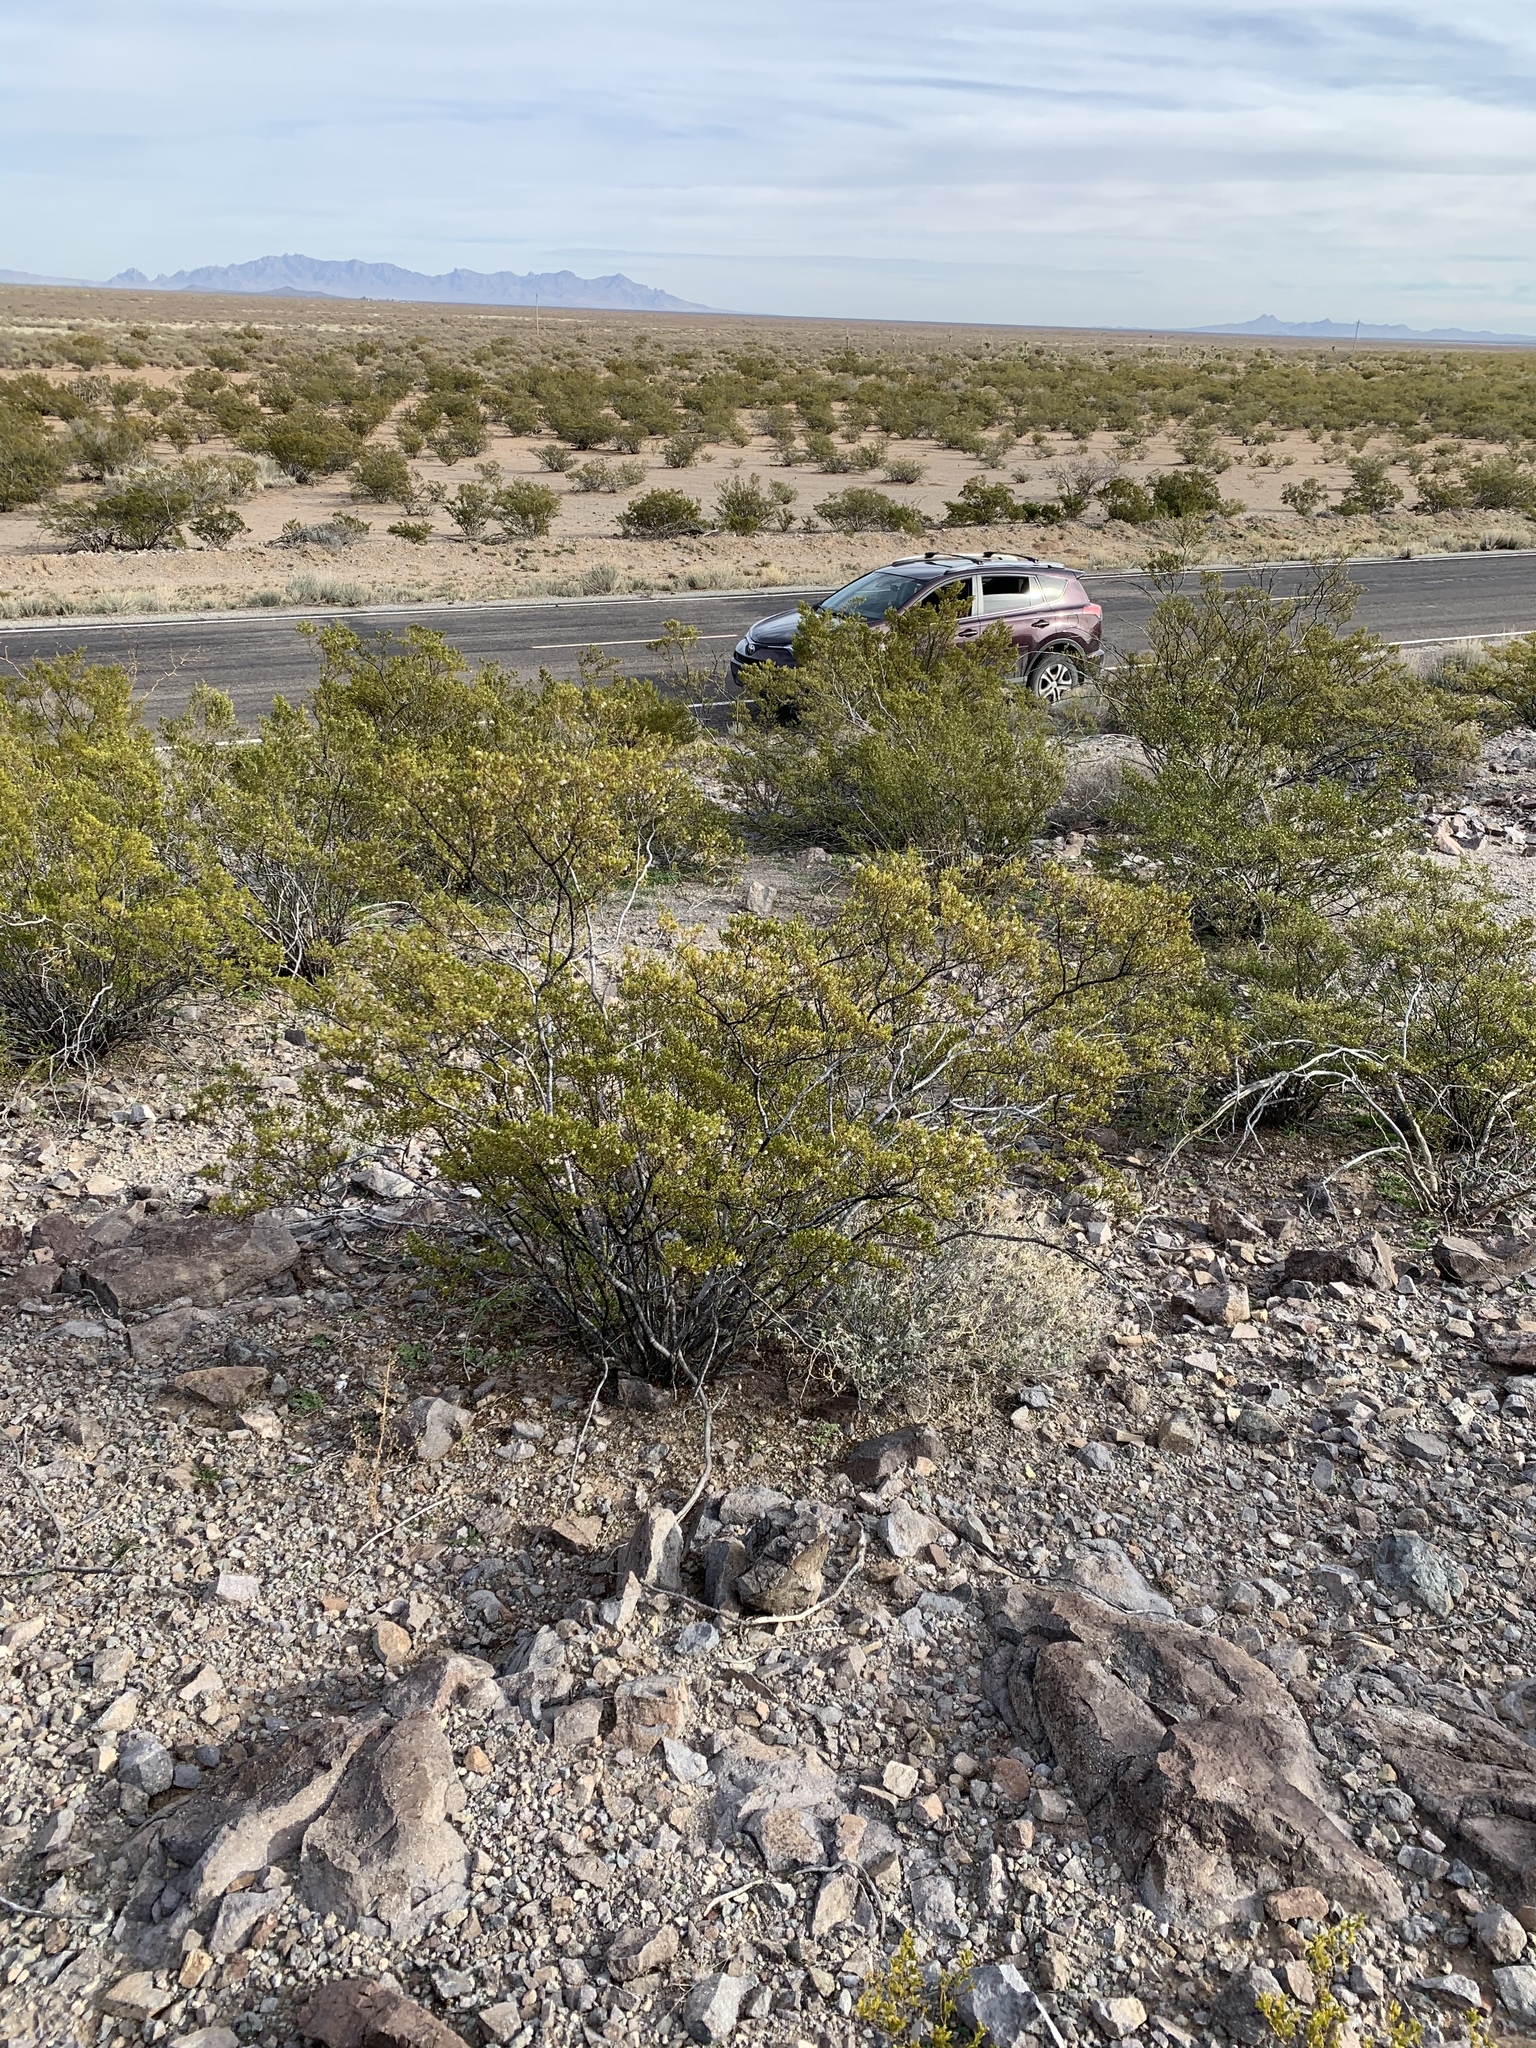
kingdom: Plantae
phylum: Tracheophyta
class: Magnoliopsida
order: Zygophyllales
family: Zygophyllaceae
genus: Larrea
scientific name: Larrea tridentata
